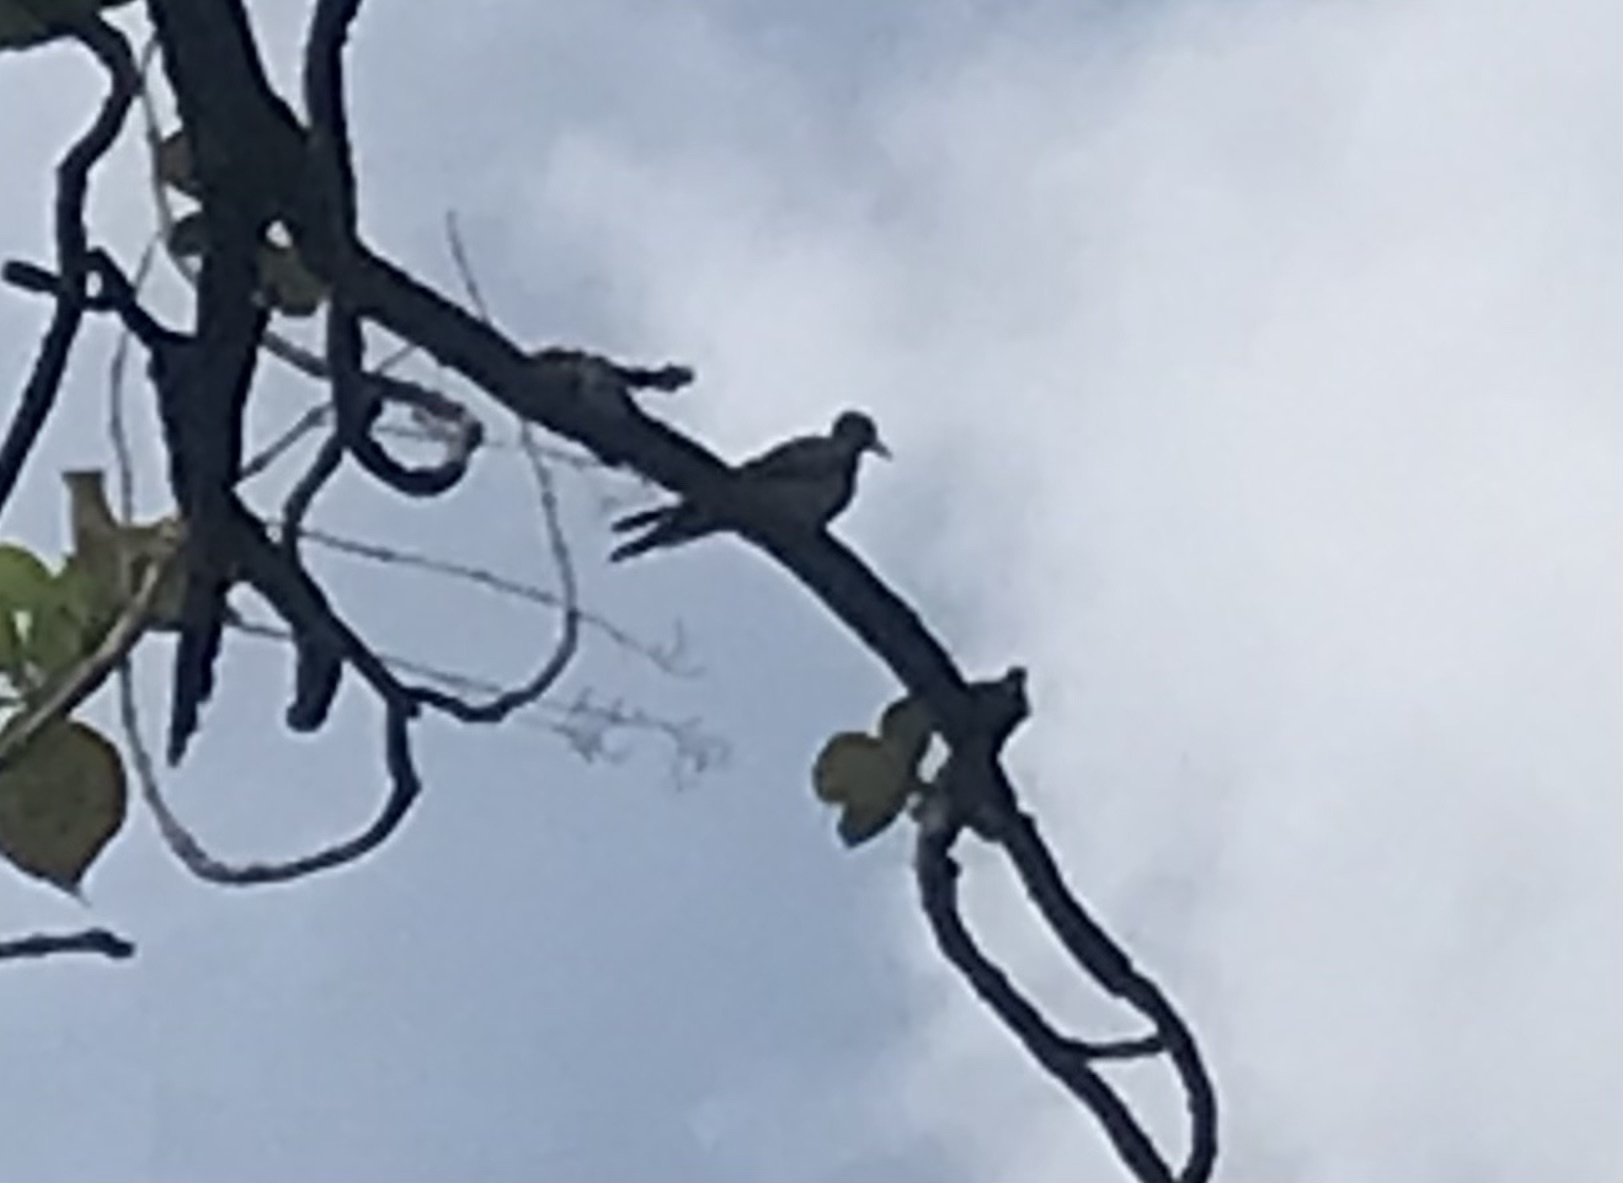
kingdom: Animalia
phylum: Chordata
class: Aves
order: Columbiformes
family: Columbidae
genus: Geopelia
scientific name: Geopelia striata
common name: Zebra dove
